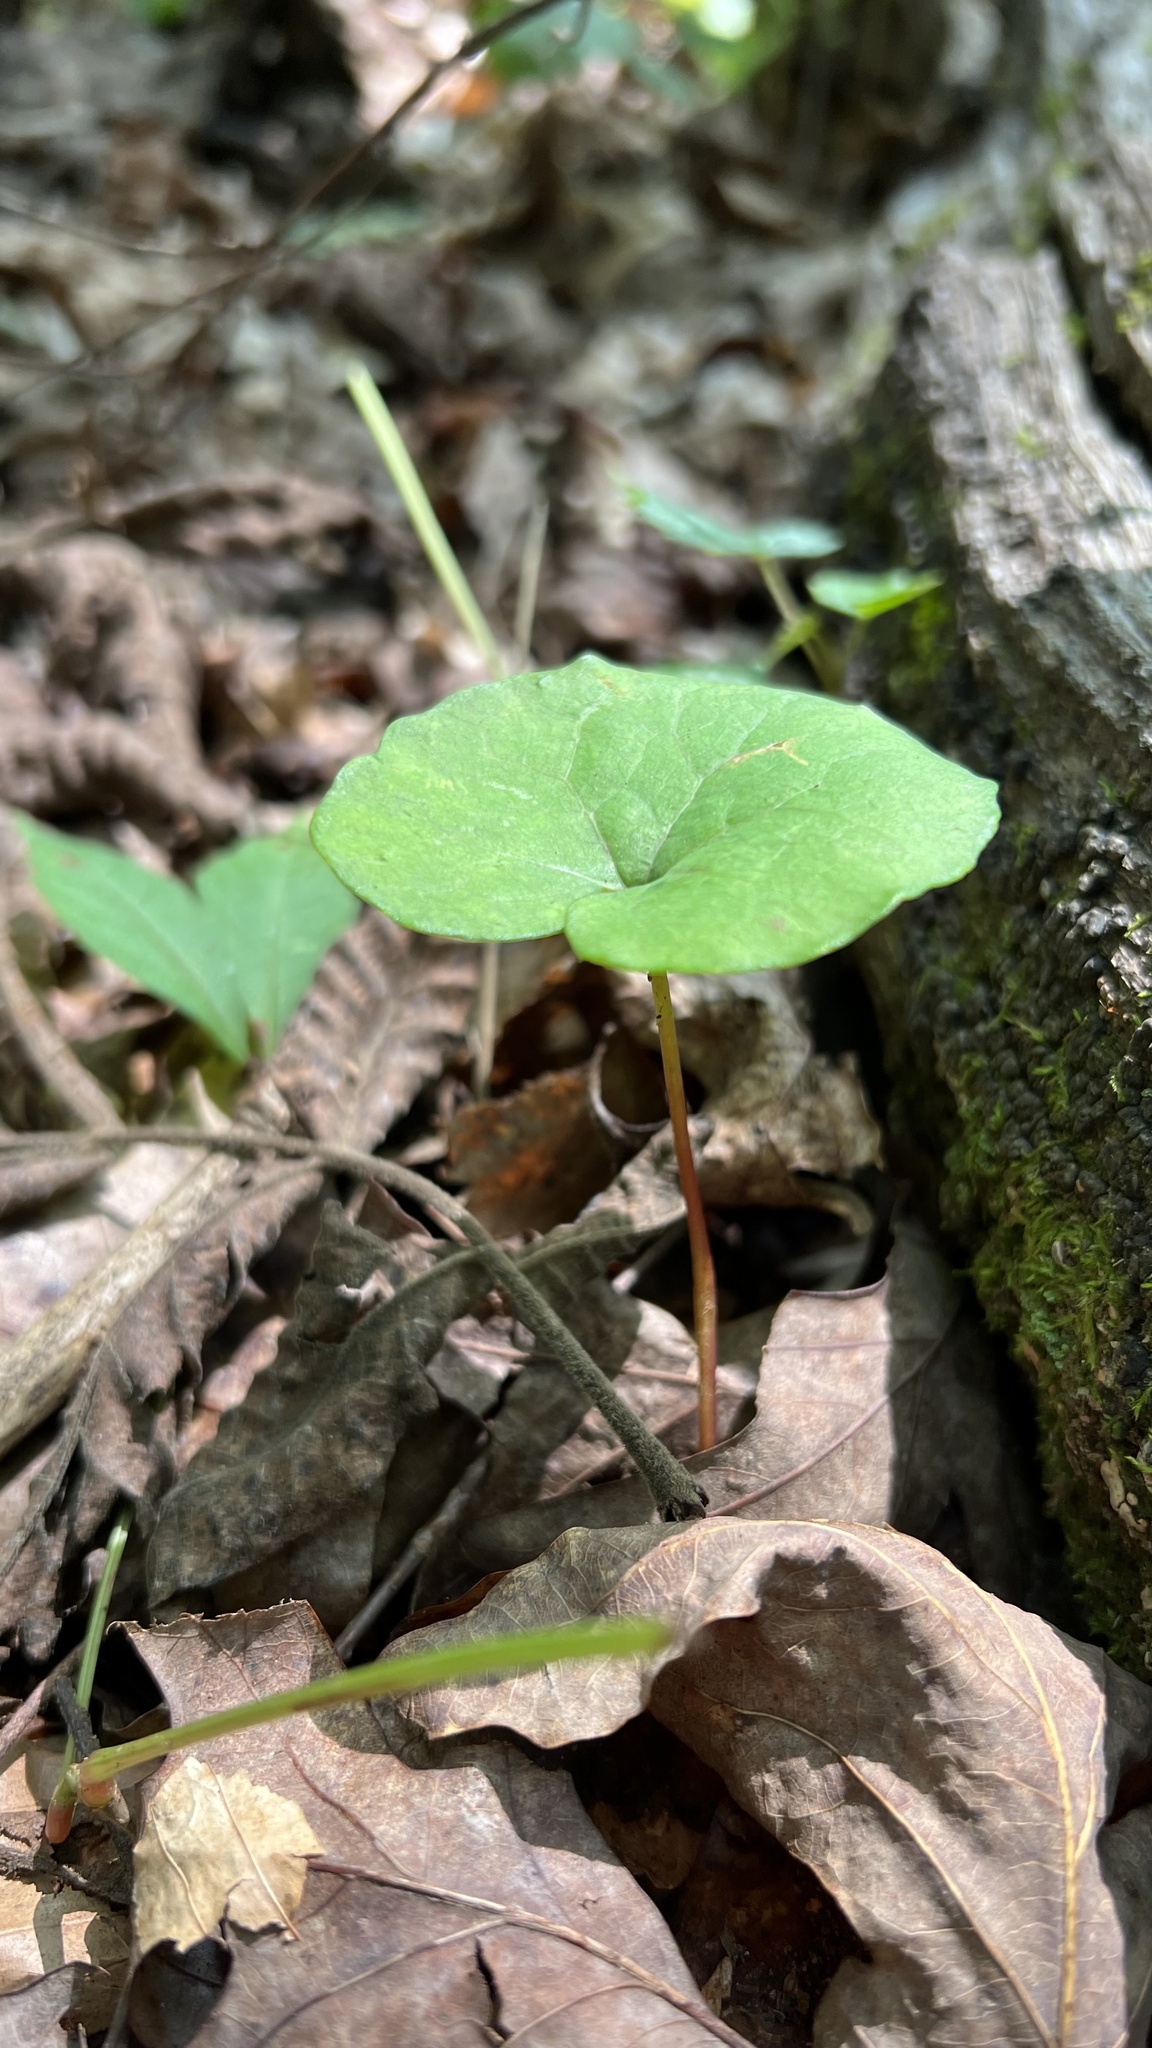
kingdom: Plantae
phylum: Tracheophyta
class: Magnoliopsida
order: Ranunculales
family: Papaveraceae
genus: Sanguinaria
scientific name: Sanguinaria canadensis
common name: Bloodroot
